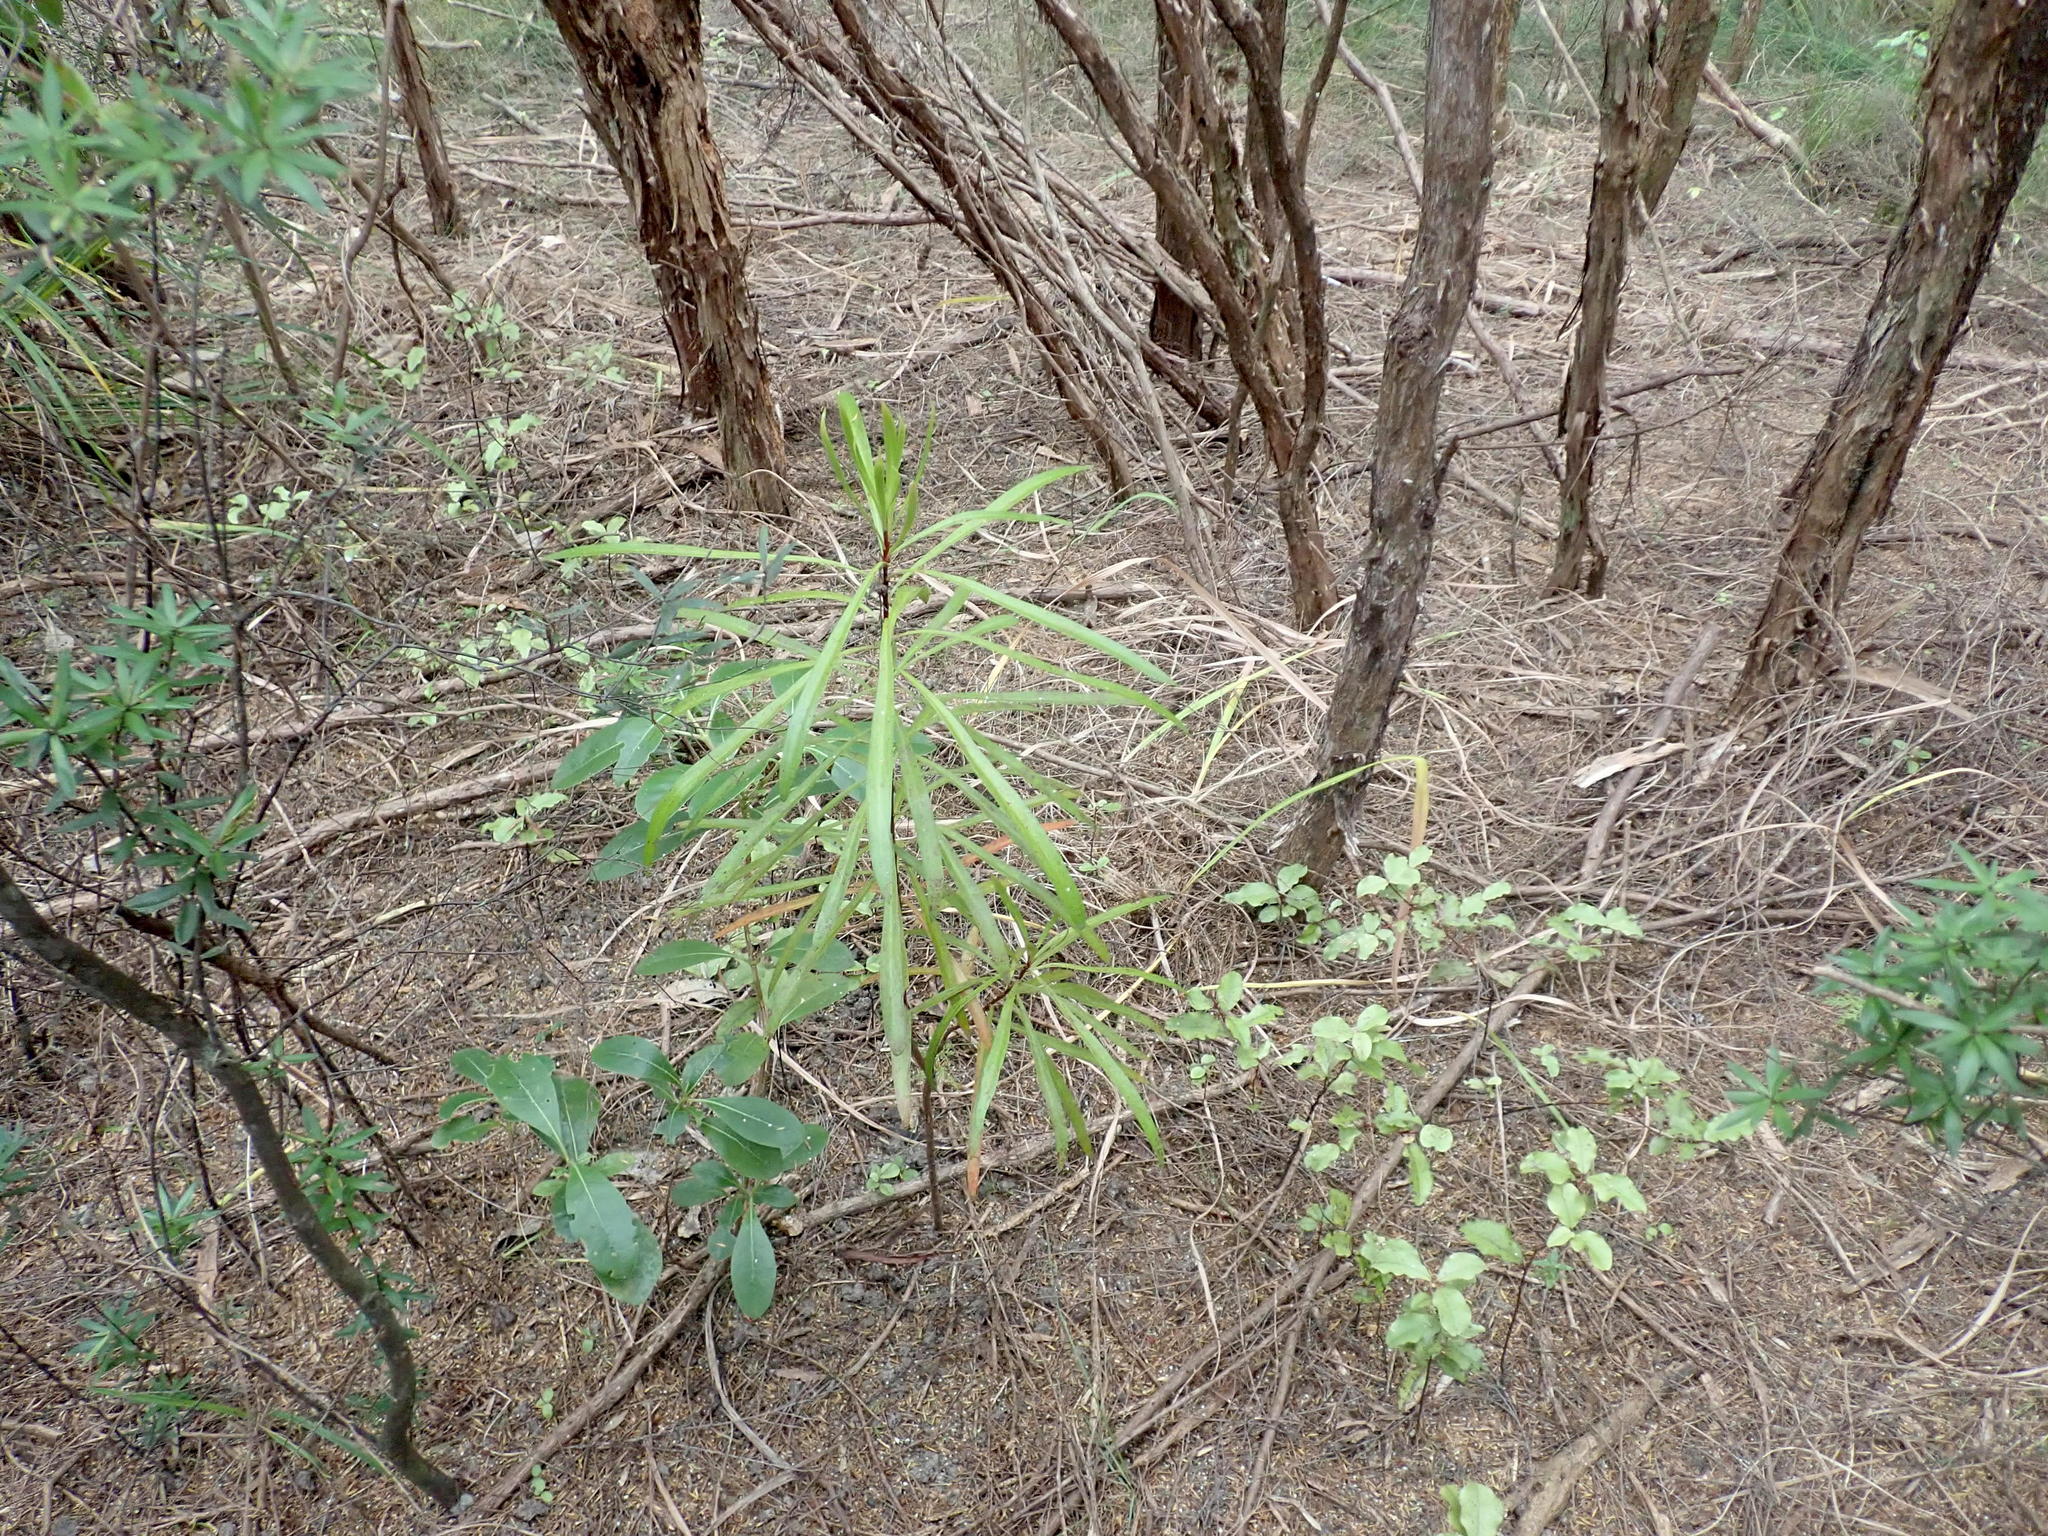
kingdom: Plantae
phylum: Tracheophyta
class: Magnoliopsida
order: Ericales
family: Primulaceae
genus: Myrsine
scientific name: Myrsine australis
